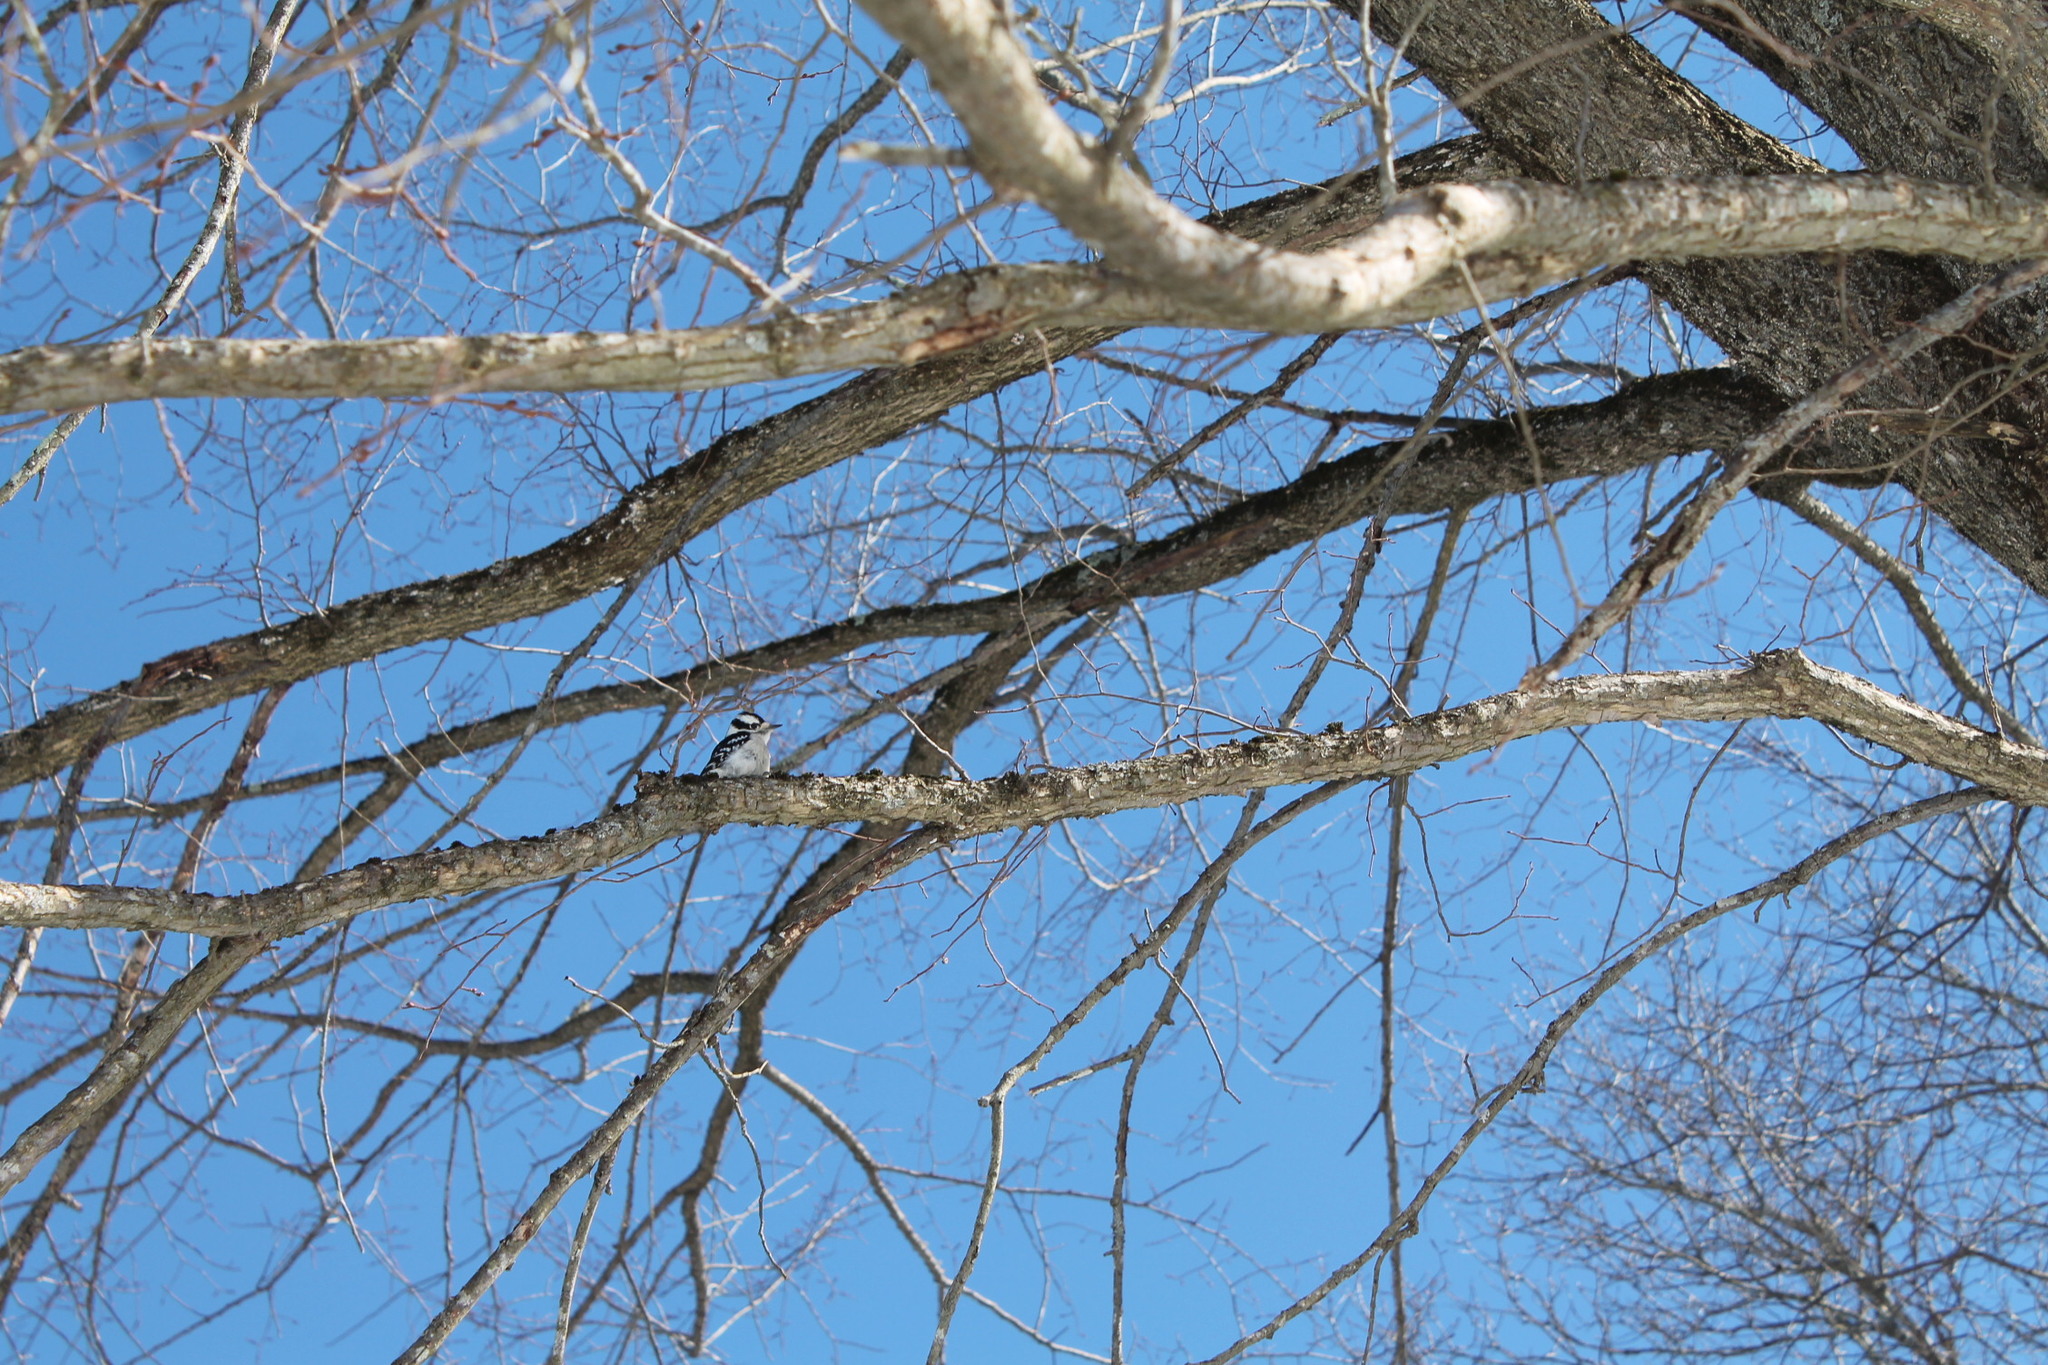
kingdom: Animalia
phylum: Chordata
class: Aves
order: Piciformes
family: Picidae
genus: Dryobates
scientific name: Dryobates pubescens
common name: Downy woodpecker
